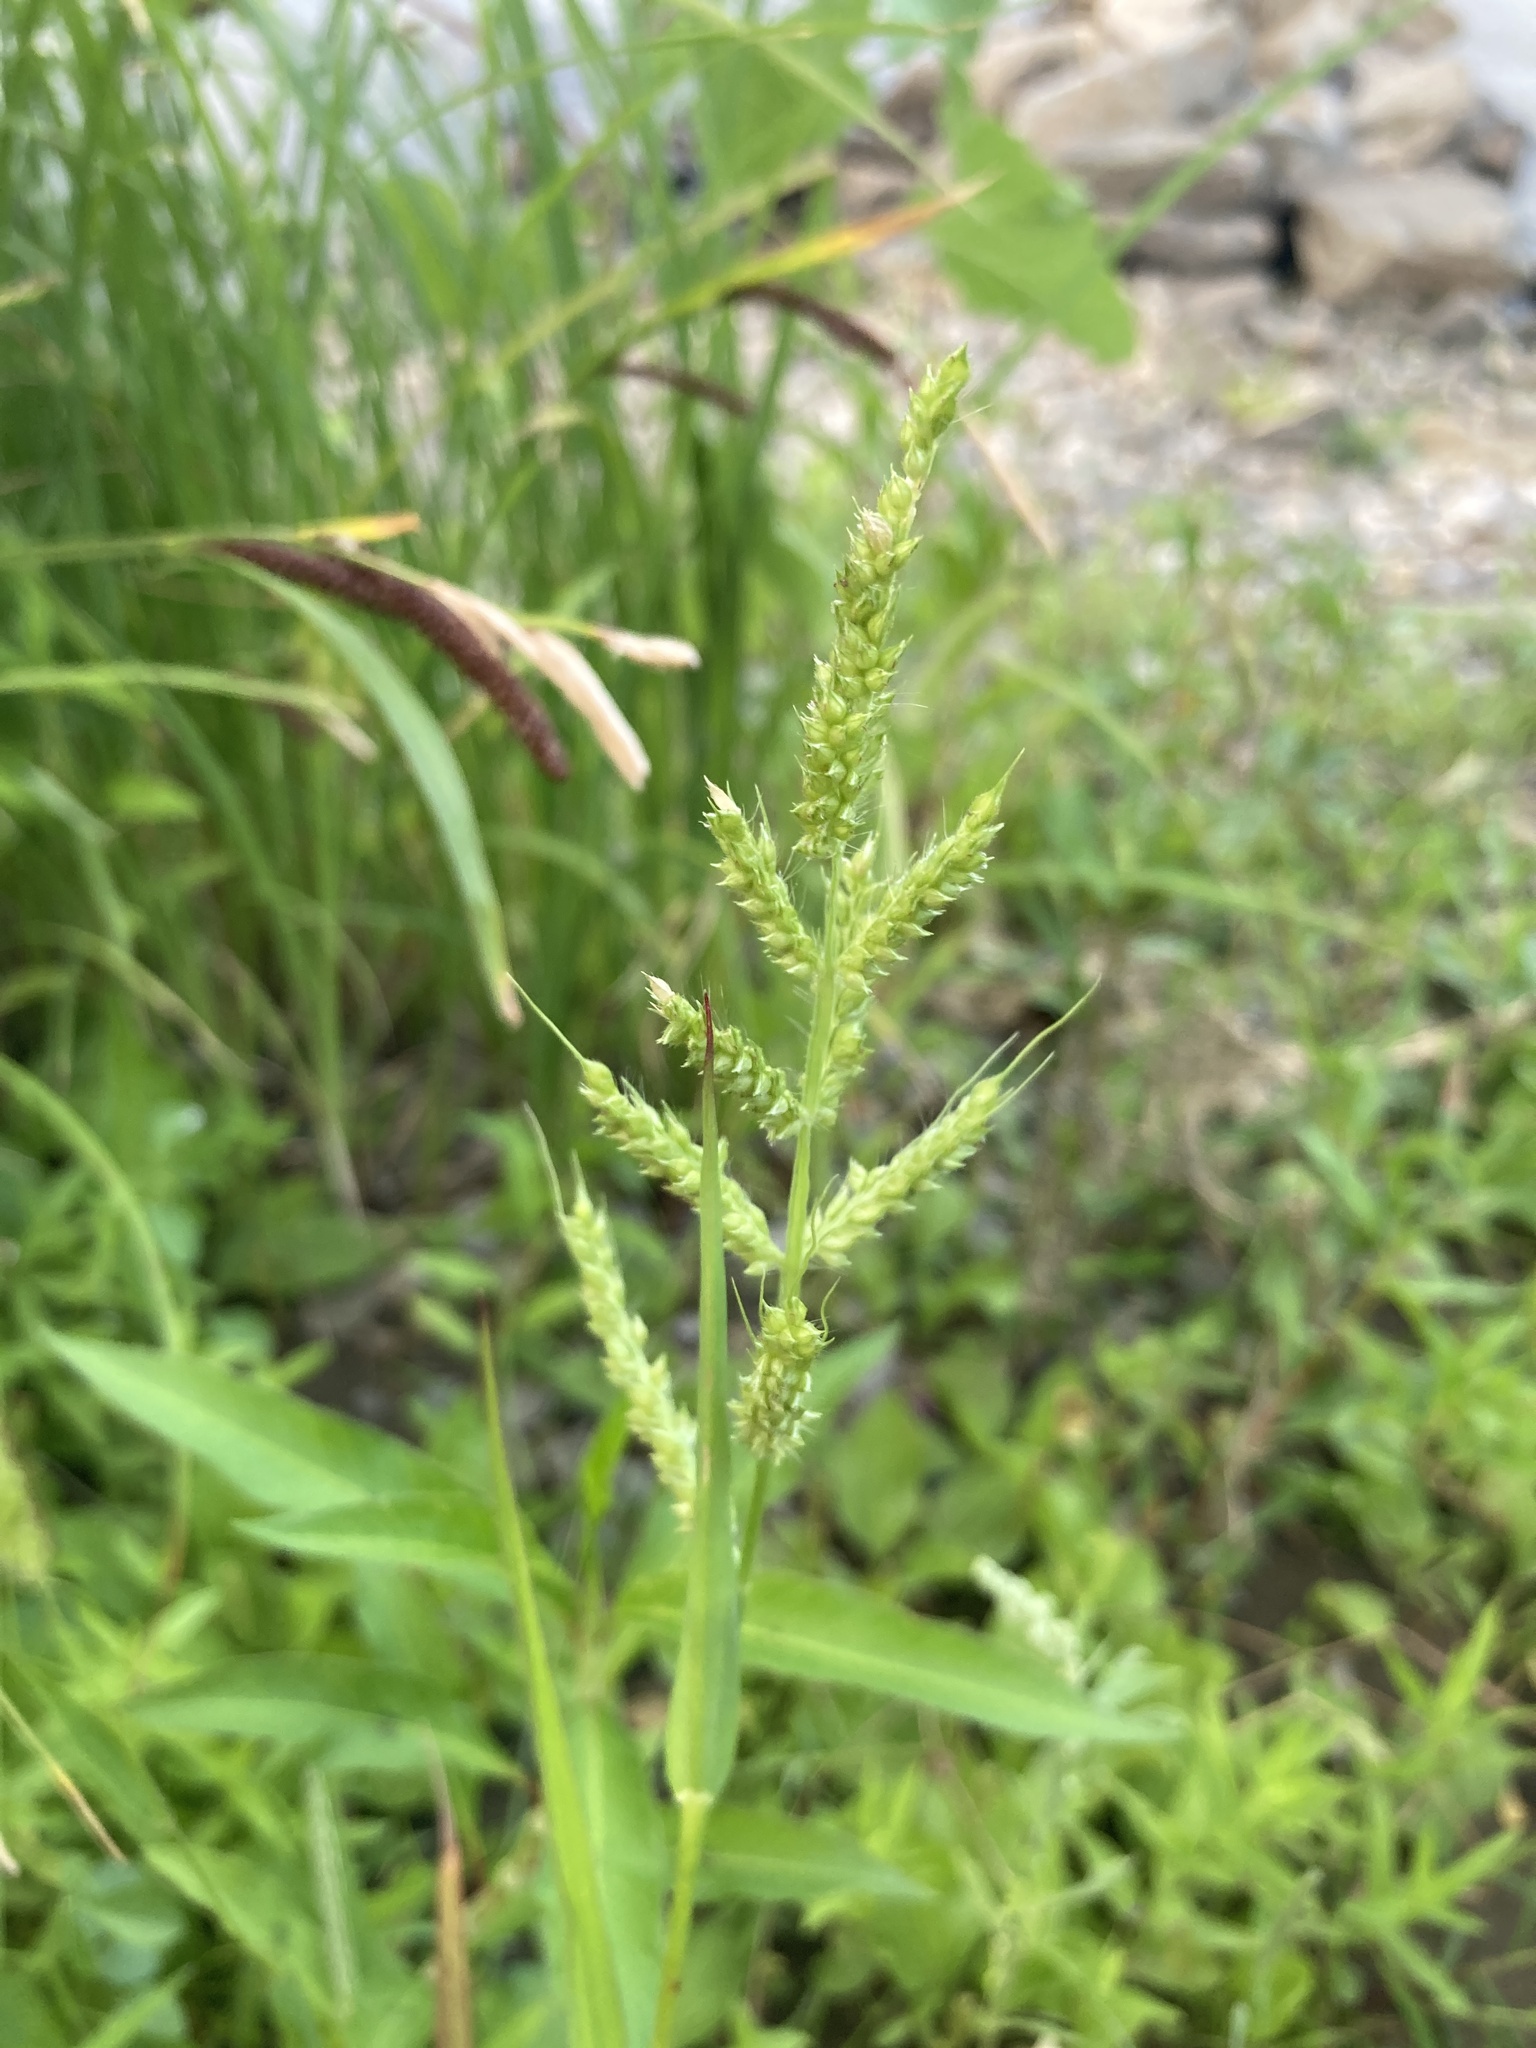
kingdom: Plantae
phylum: Tracheophyta
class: Liliopsida
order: Poales
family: Poaceae
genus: Echinochloa
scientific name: Echinochloa crus-galli
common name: Cockspur
